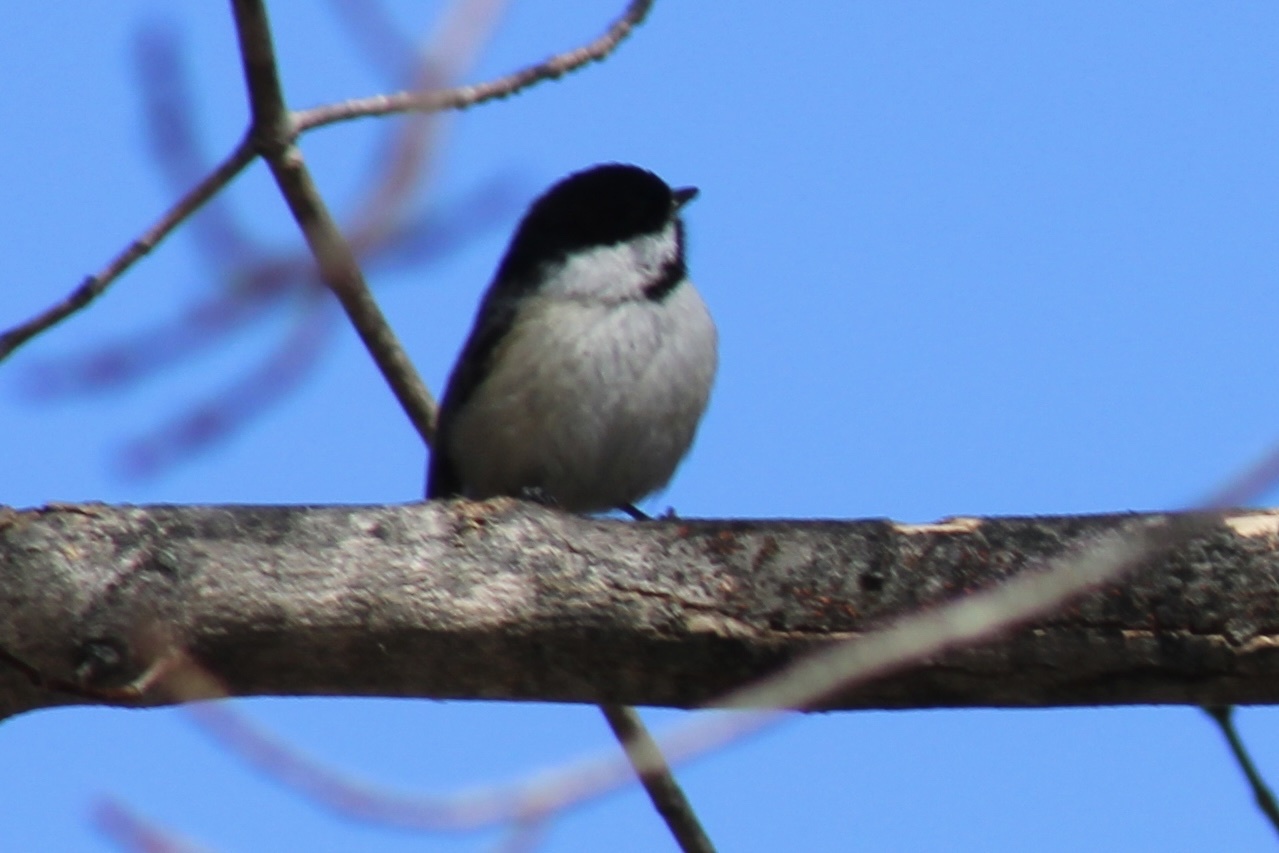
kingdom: Animalia
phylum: Chordata
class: Aves
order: Passeriformes
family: Paridae
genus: Poecile
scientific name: Poecile atricapillus
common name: Black-capped chickadee
